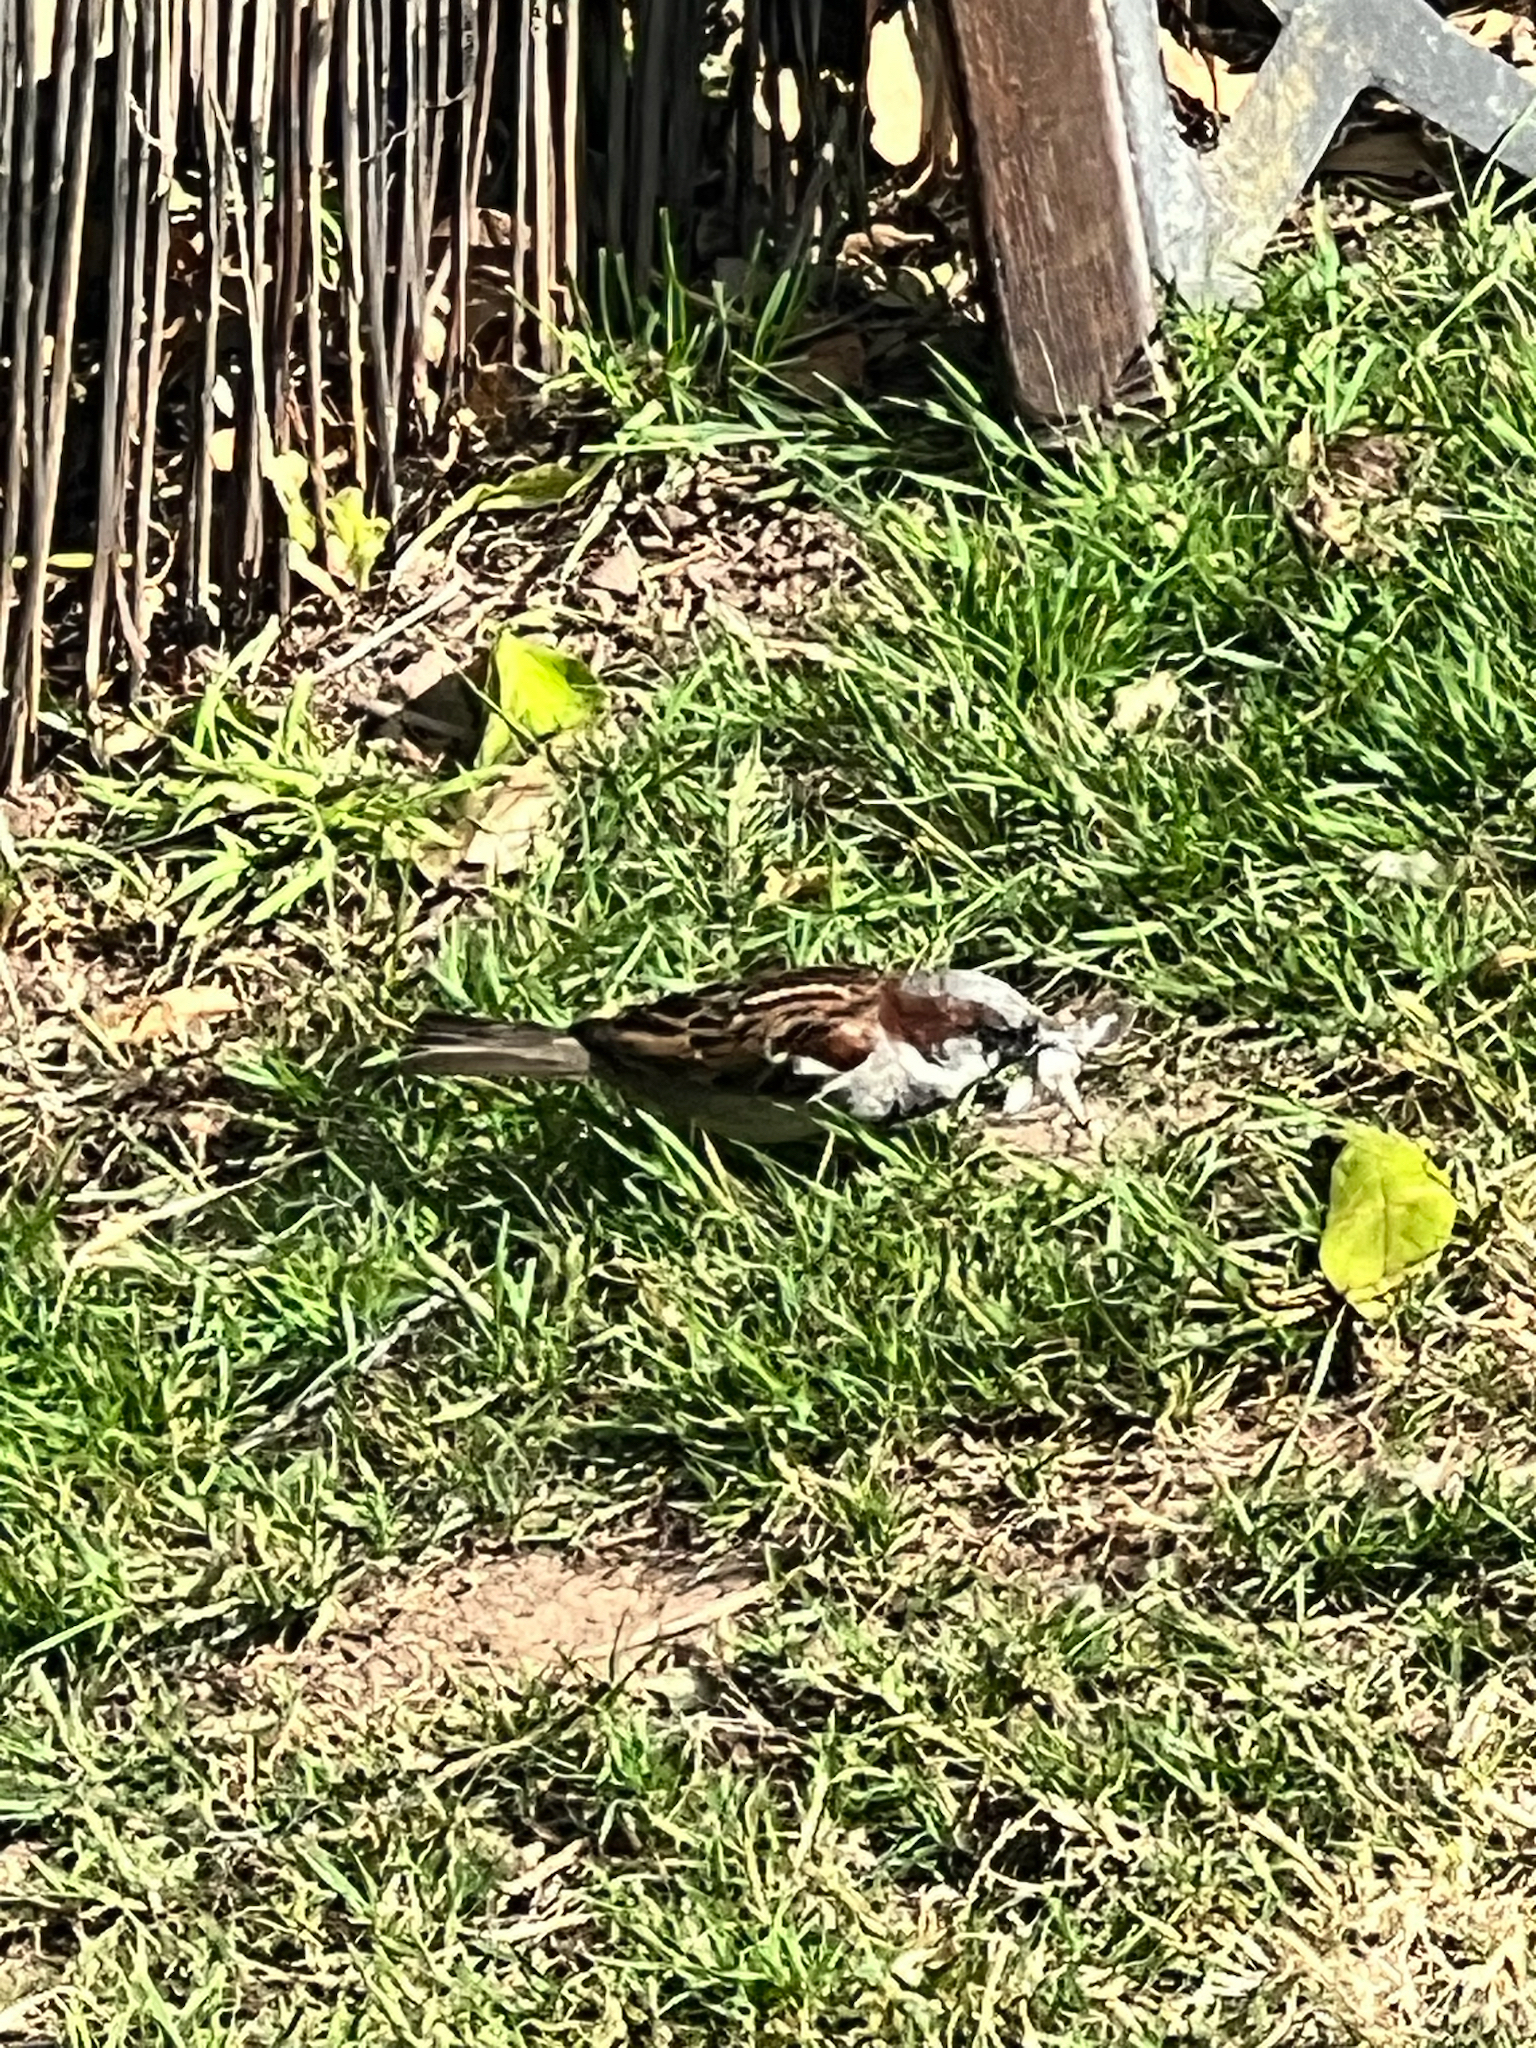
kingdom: Animalia
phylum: Chordata
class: Aves
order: Passeriformes
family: Passeridae
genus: Passer
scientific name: Passer domesticus
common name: House sparrow
